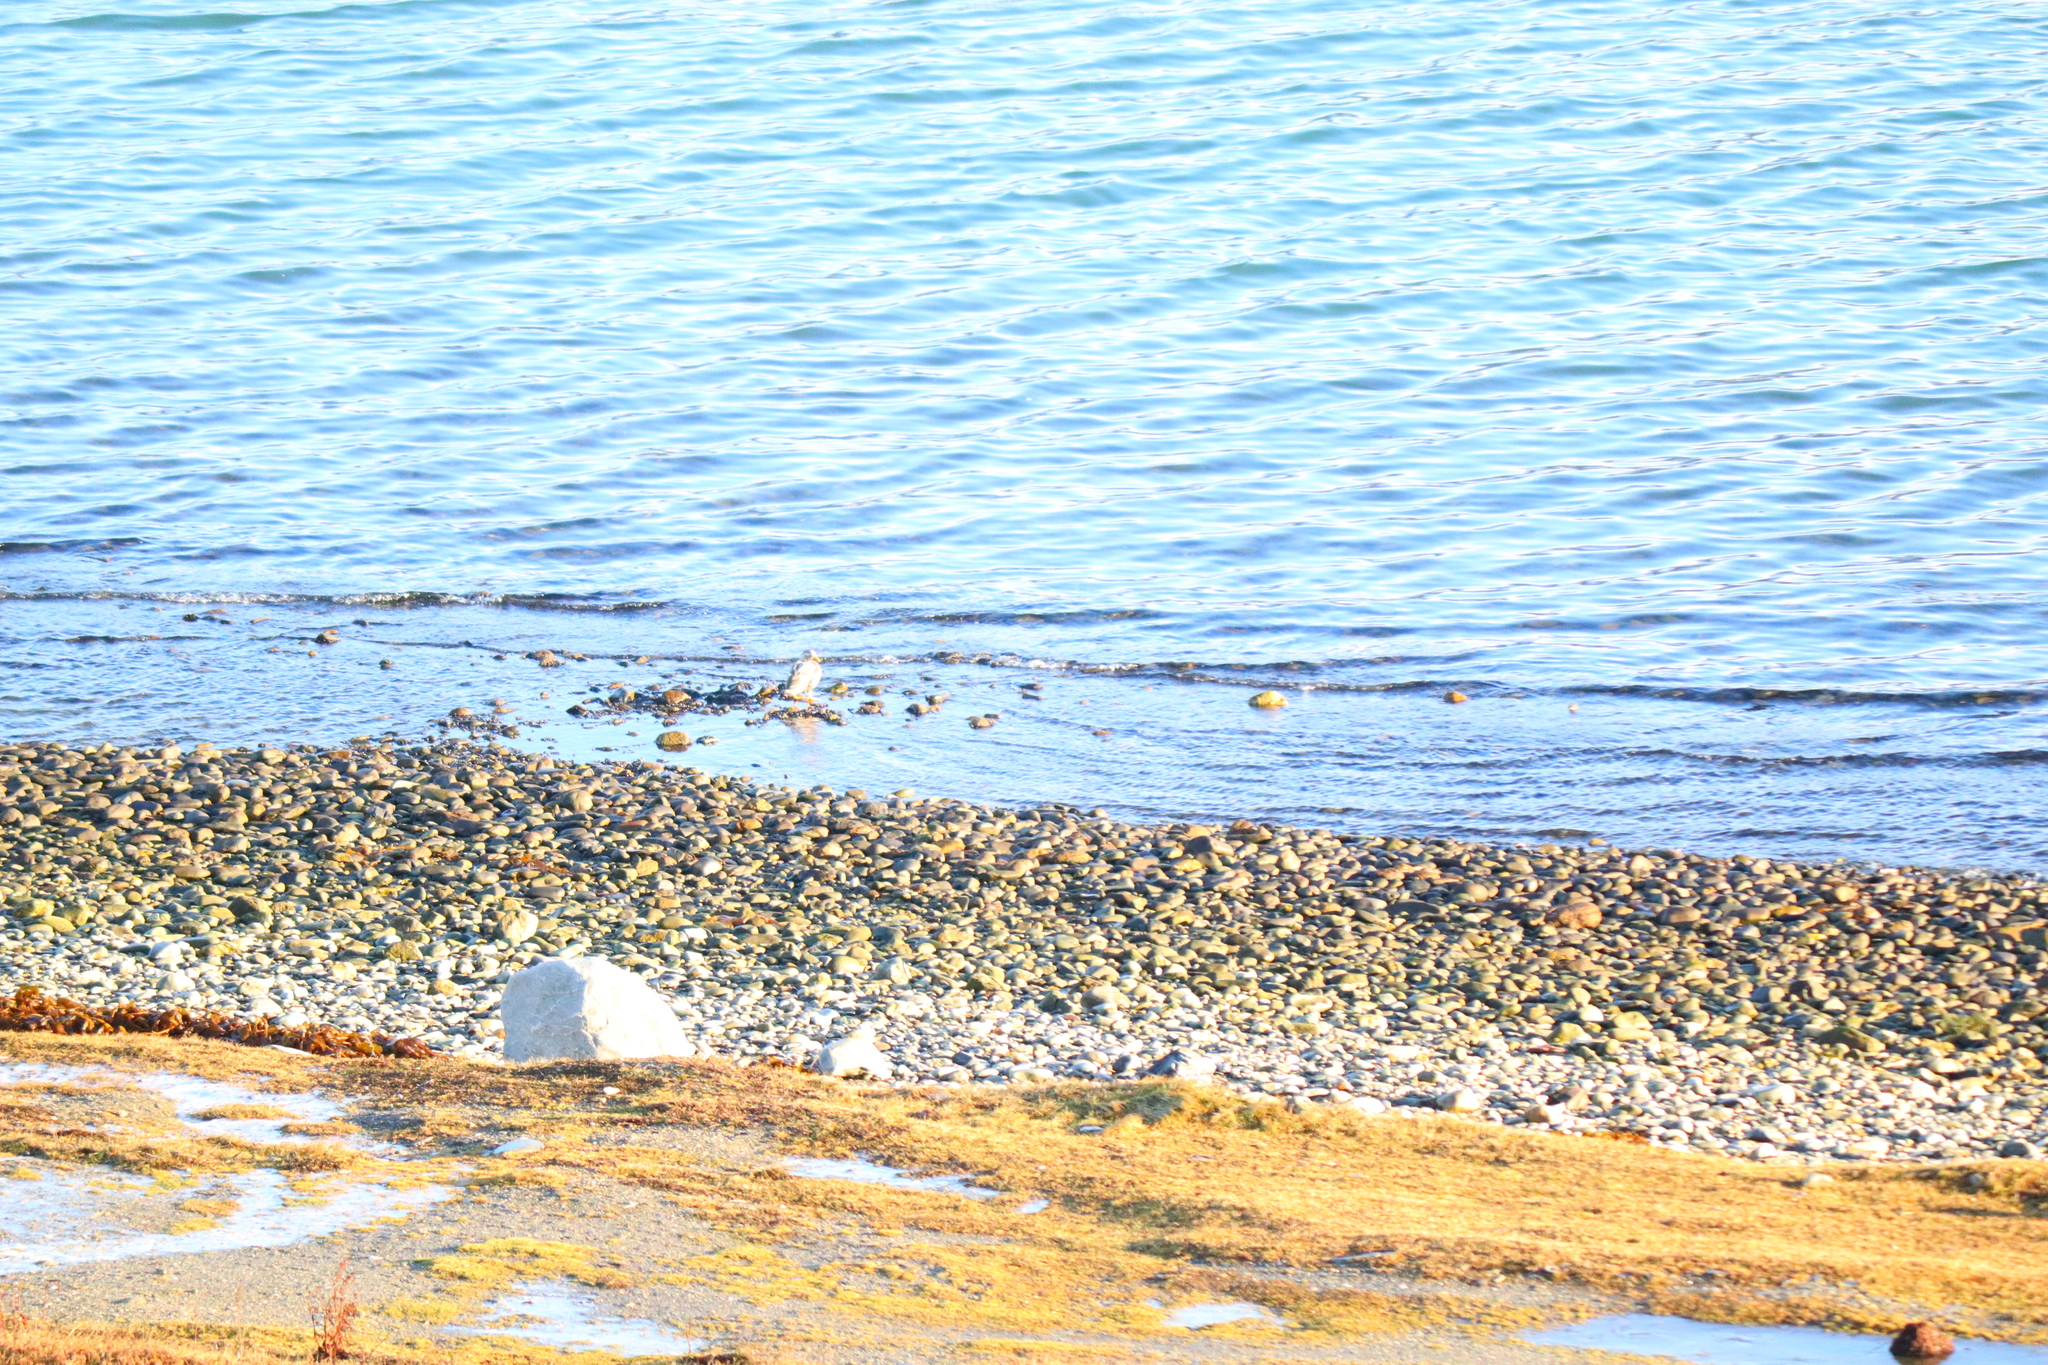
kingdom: Animalia
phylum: Chordata
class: Aves
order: Anseriformes
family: Anatidae
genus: Tachyeres
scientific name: Tachyeres patachonicus
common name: Flying steamer duck
